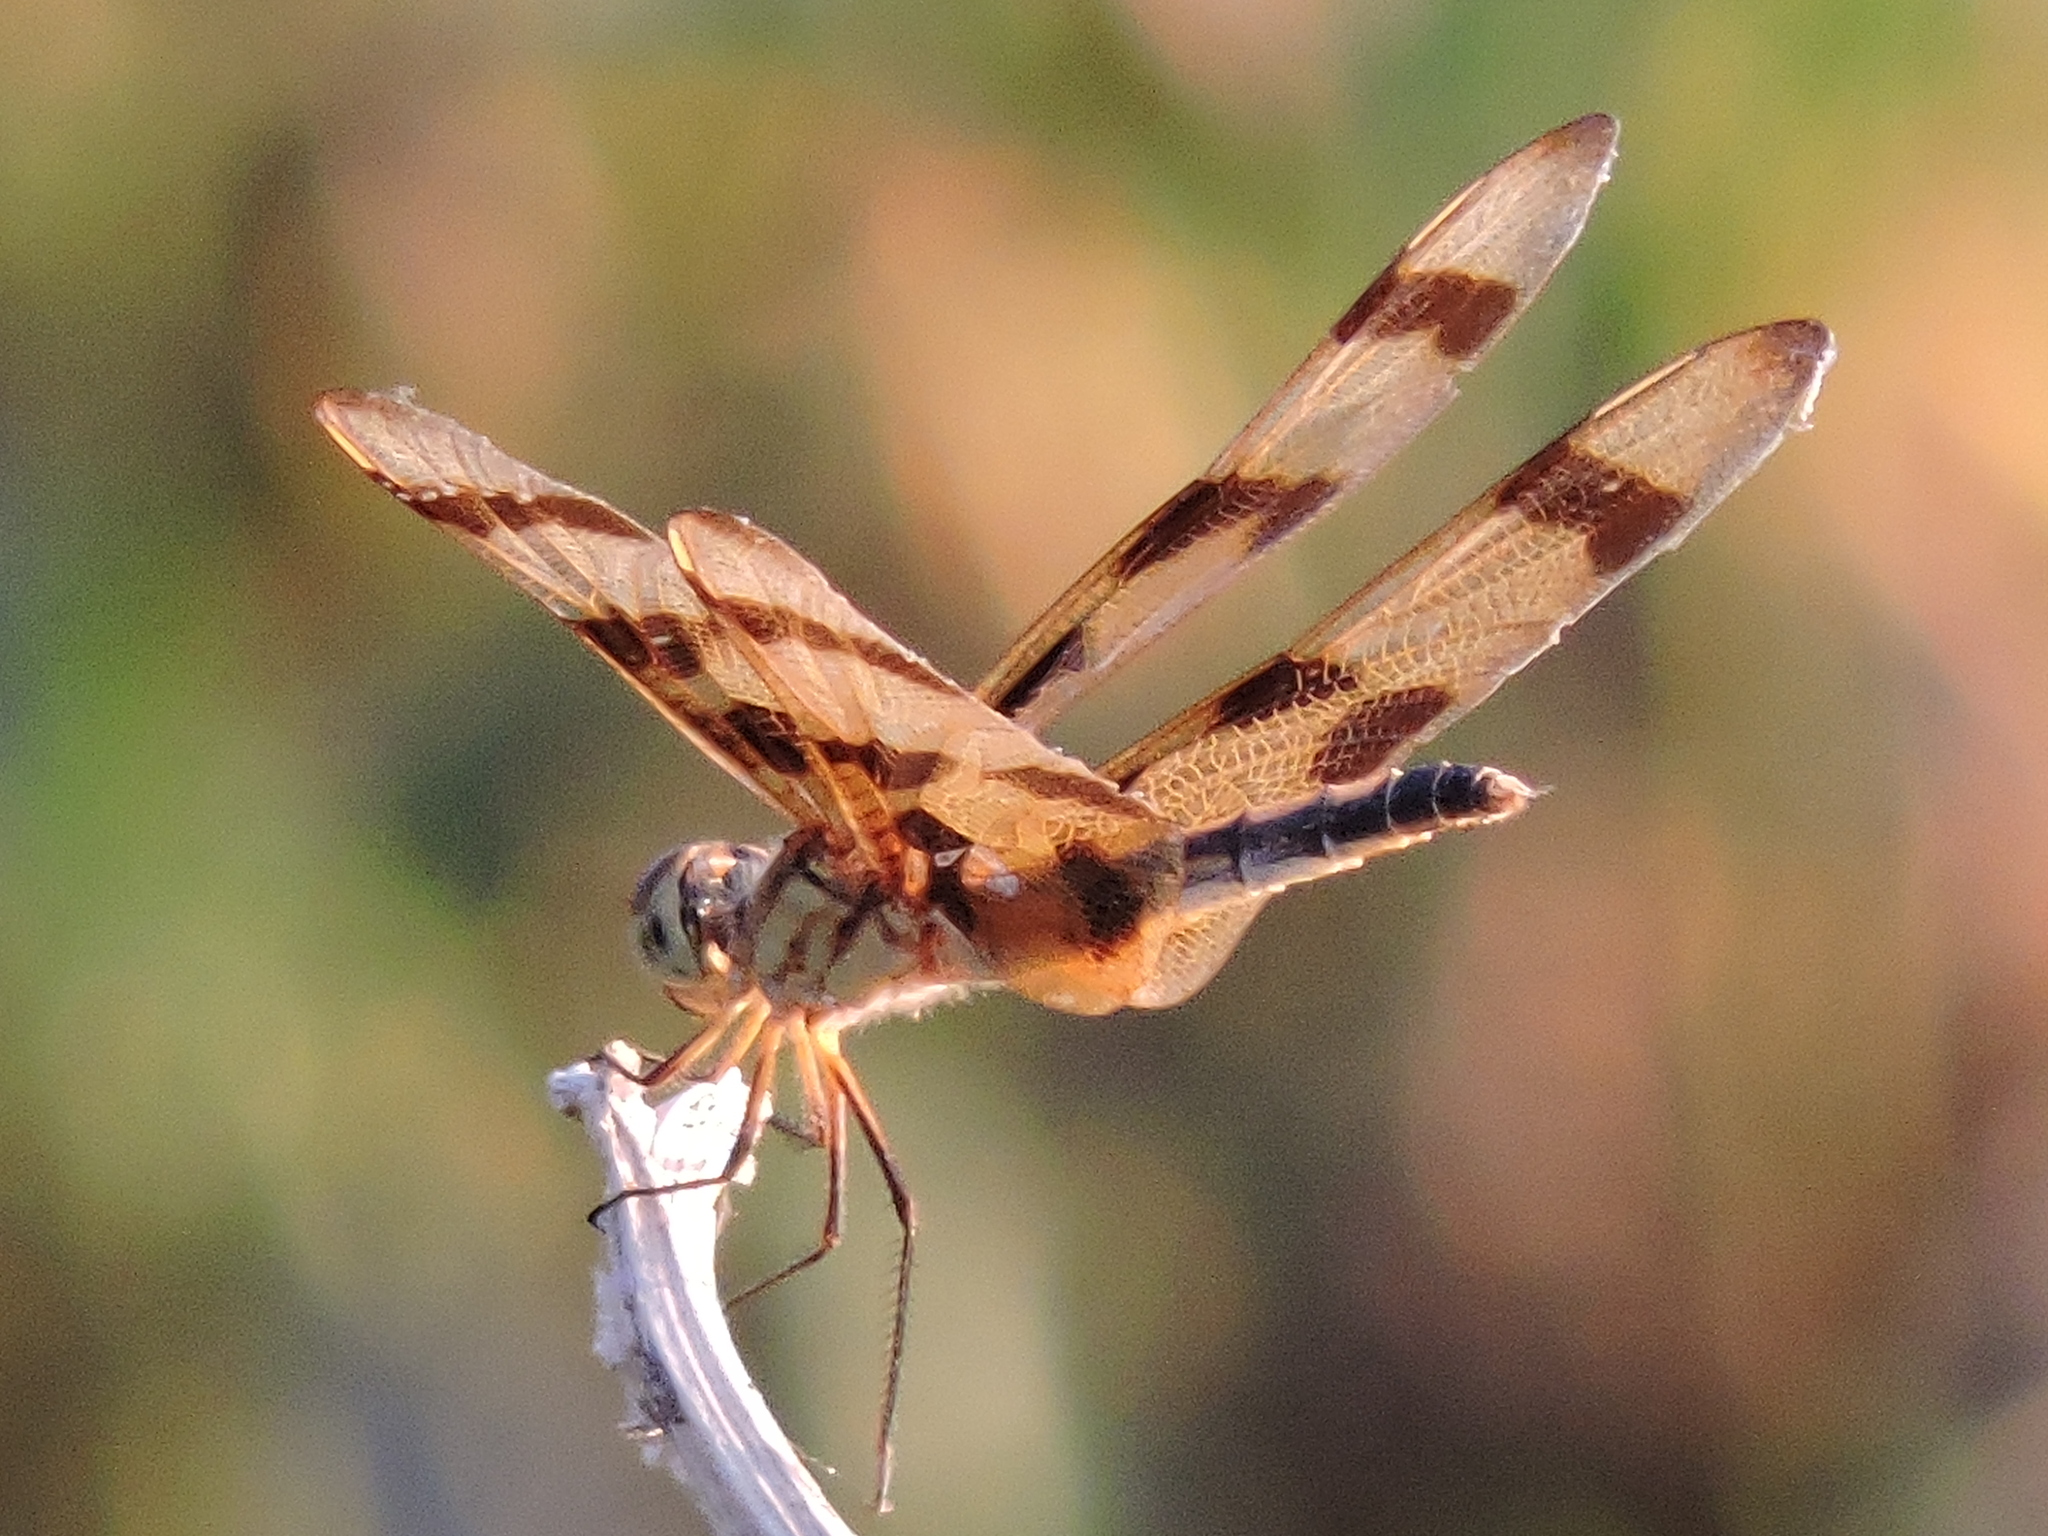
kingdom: Animalia
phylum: Arthropoda
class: Insecta
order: Odonata
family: Libellulidae
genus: Celithemis
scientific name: Celithemis eponina
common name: Halloween pennant
